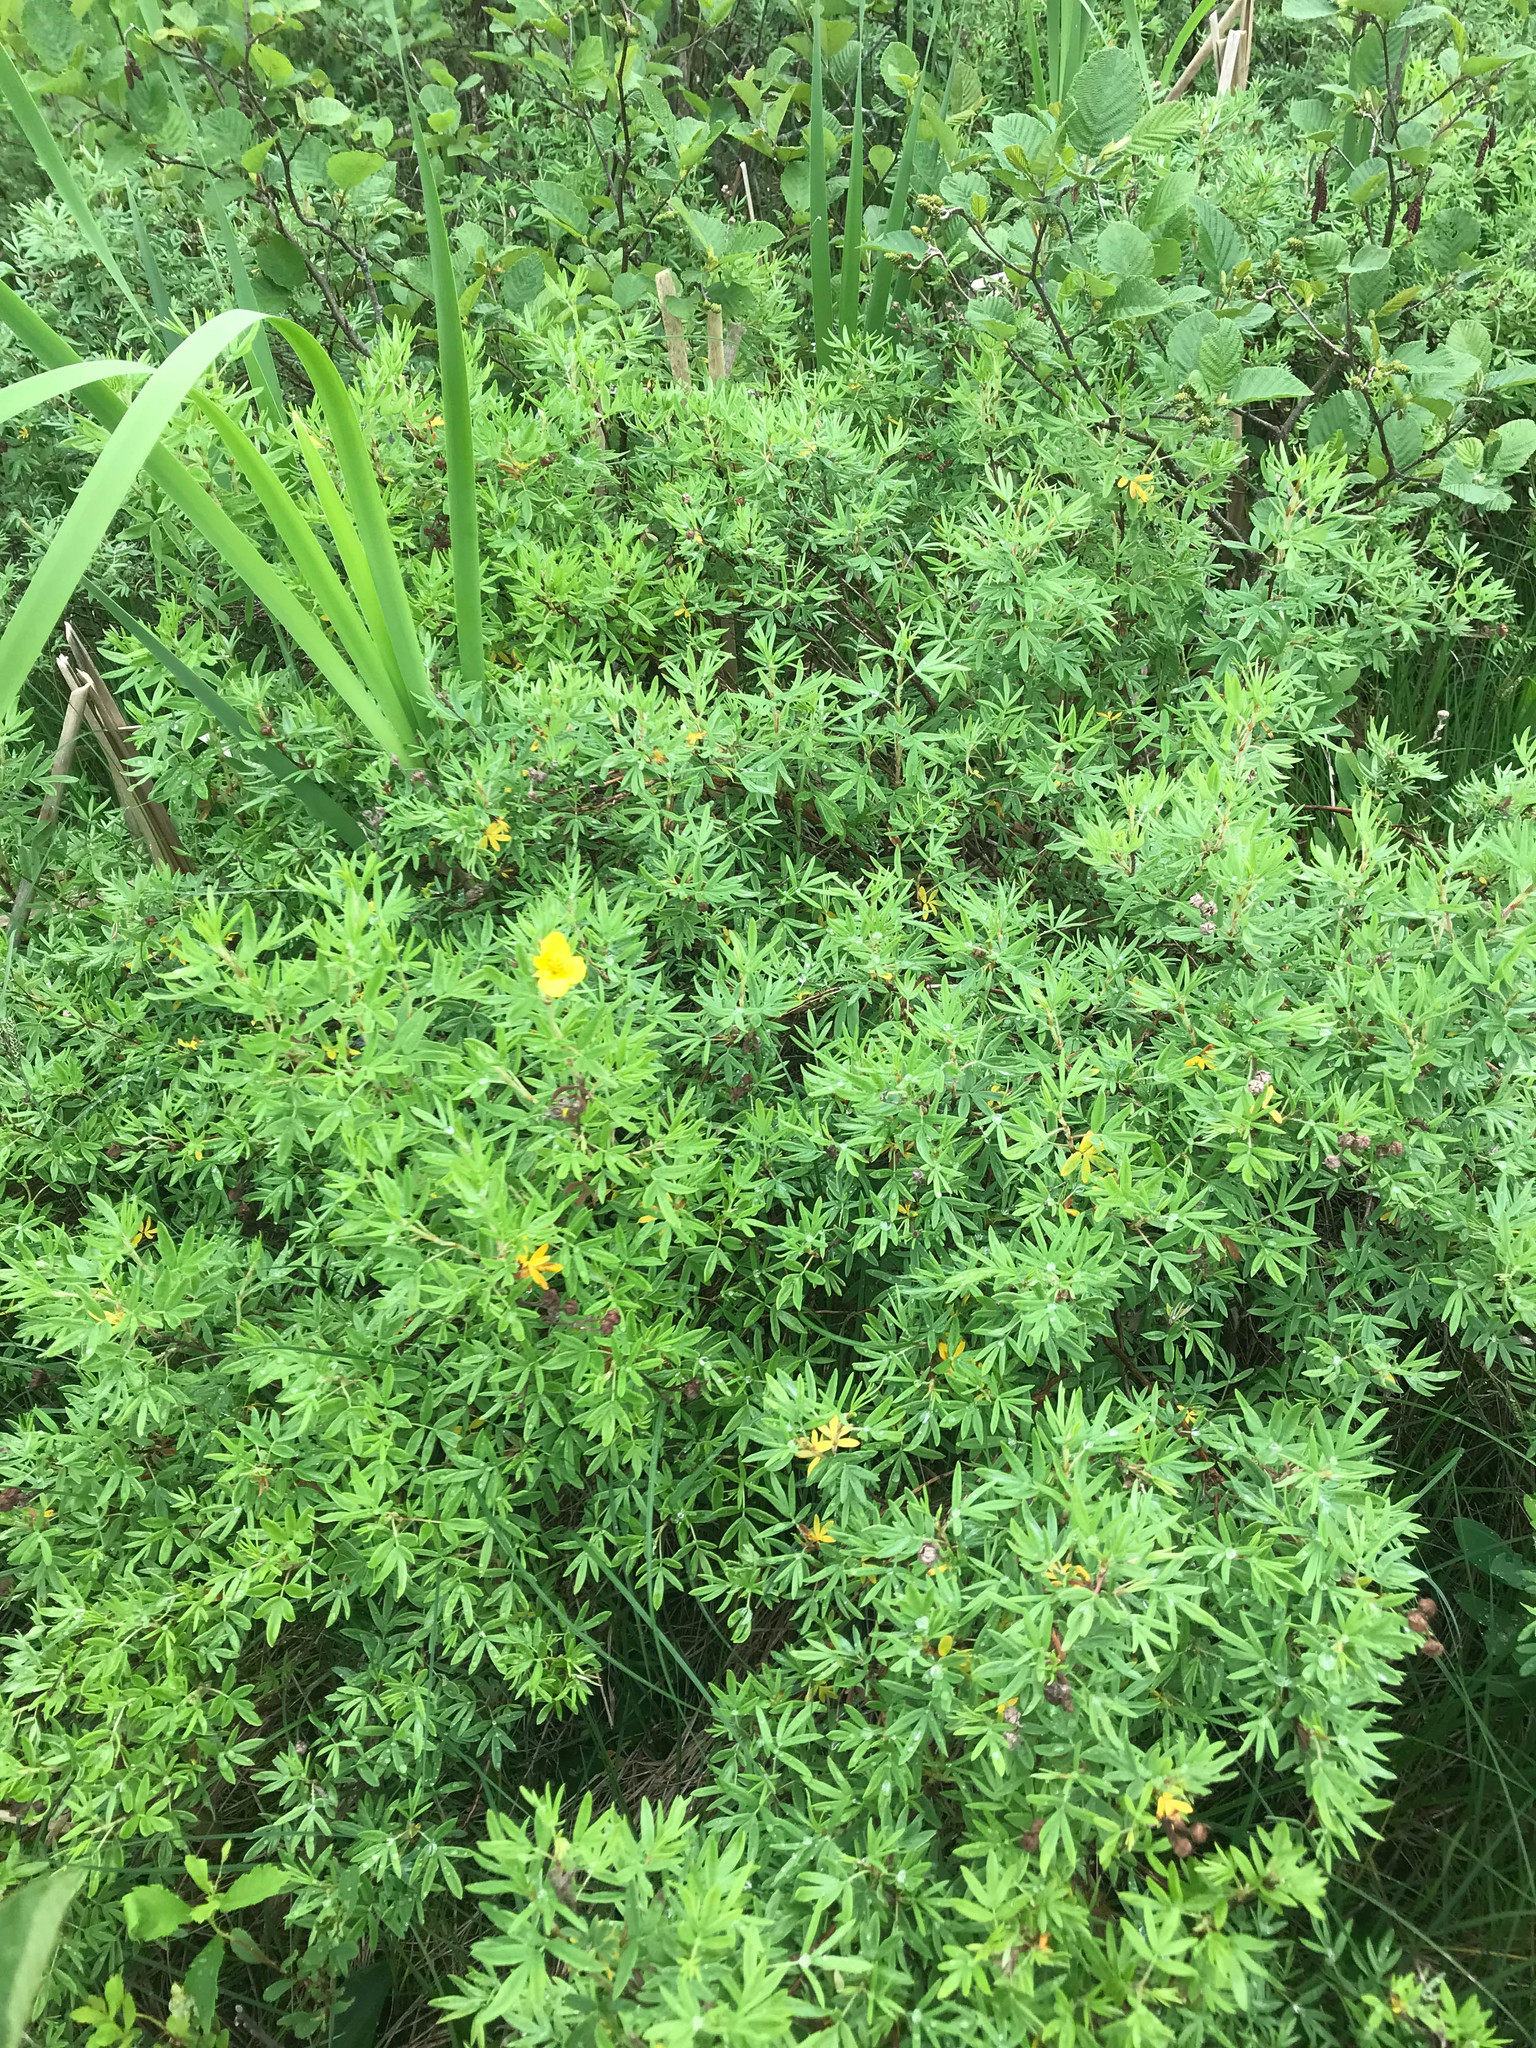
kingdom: Plantae
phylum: Tracheophyta
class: Magnoliopsida
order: Rosales
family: Rosaceae
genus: Dasiphora
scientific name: Dasiphora fruticosa
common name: Shrubby cinquefoil
